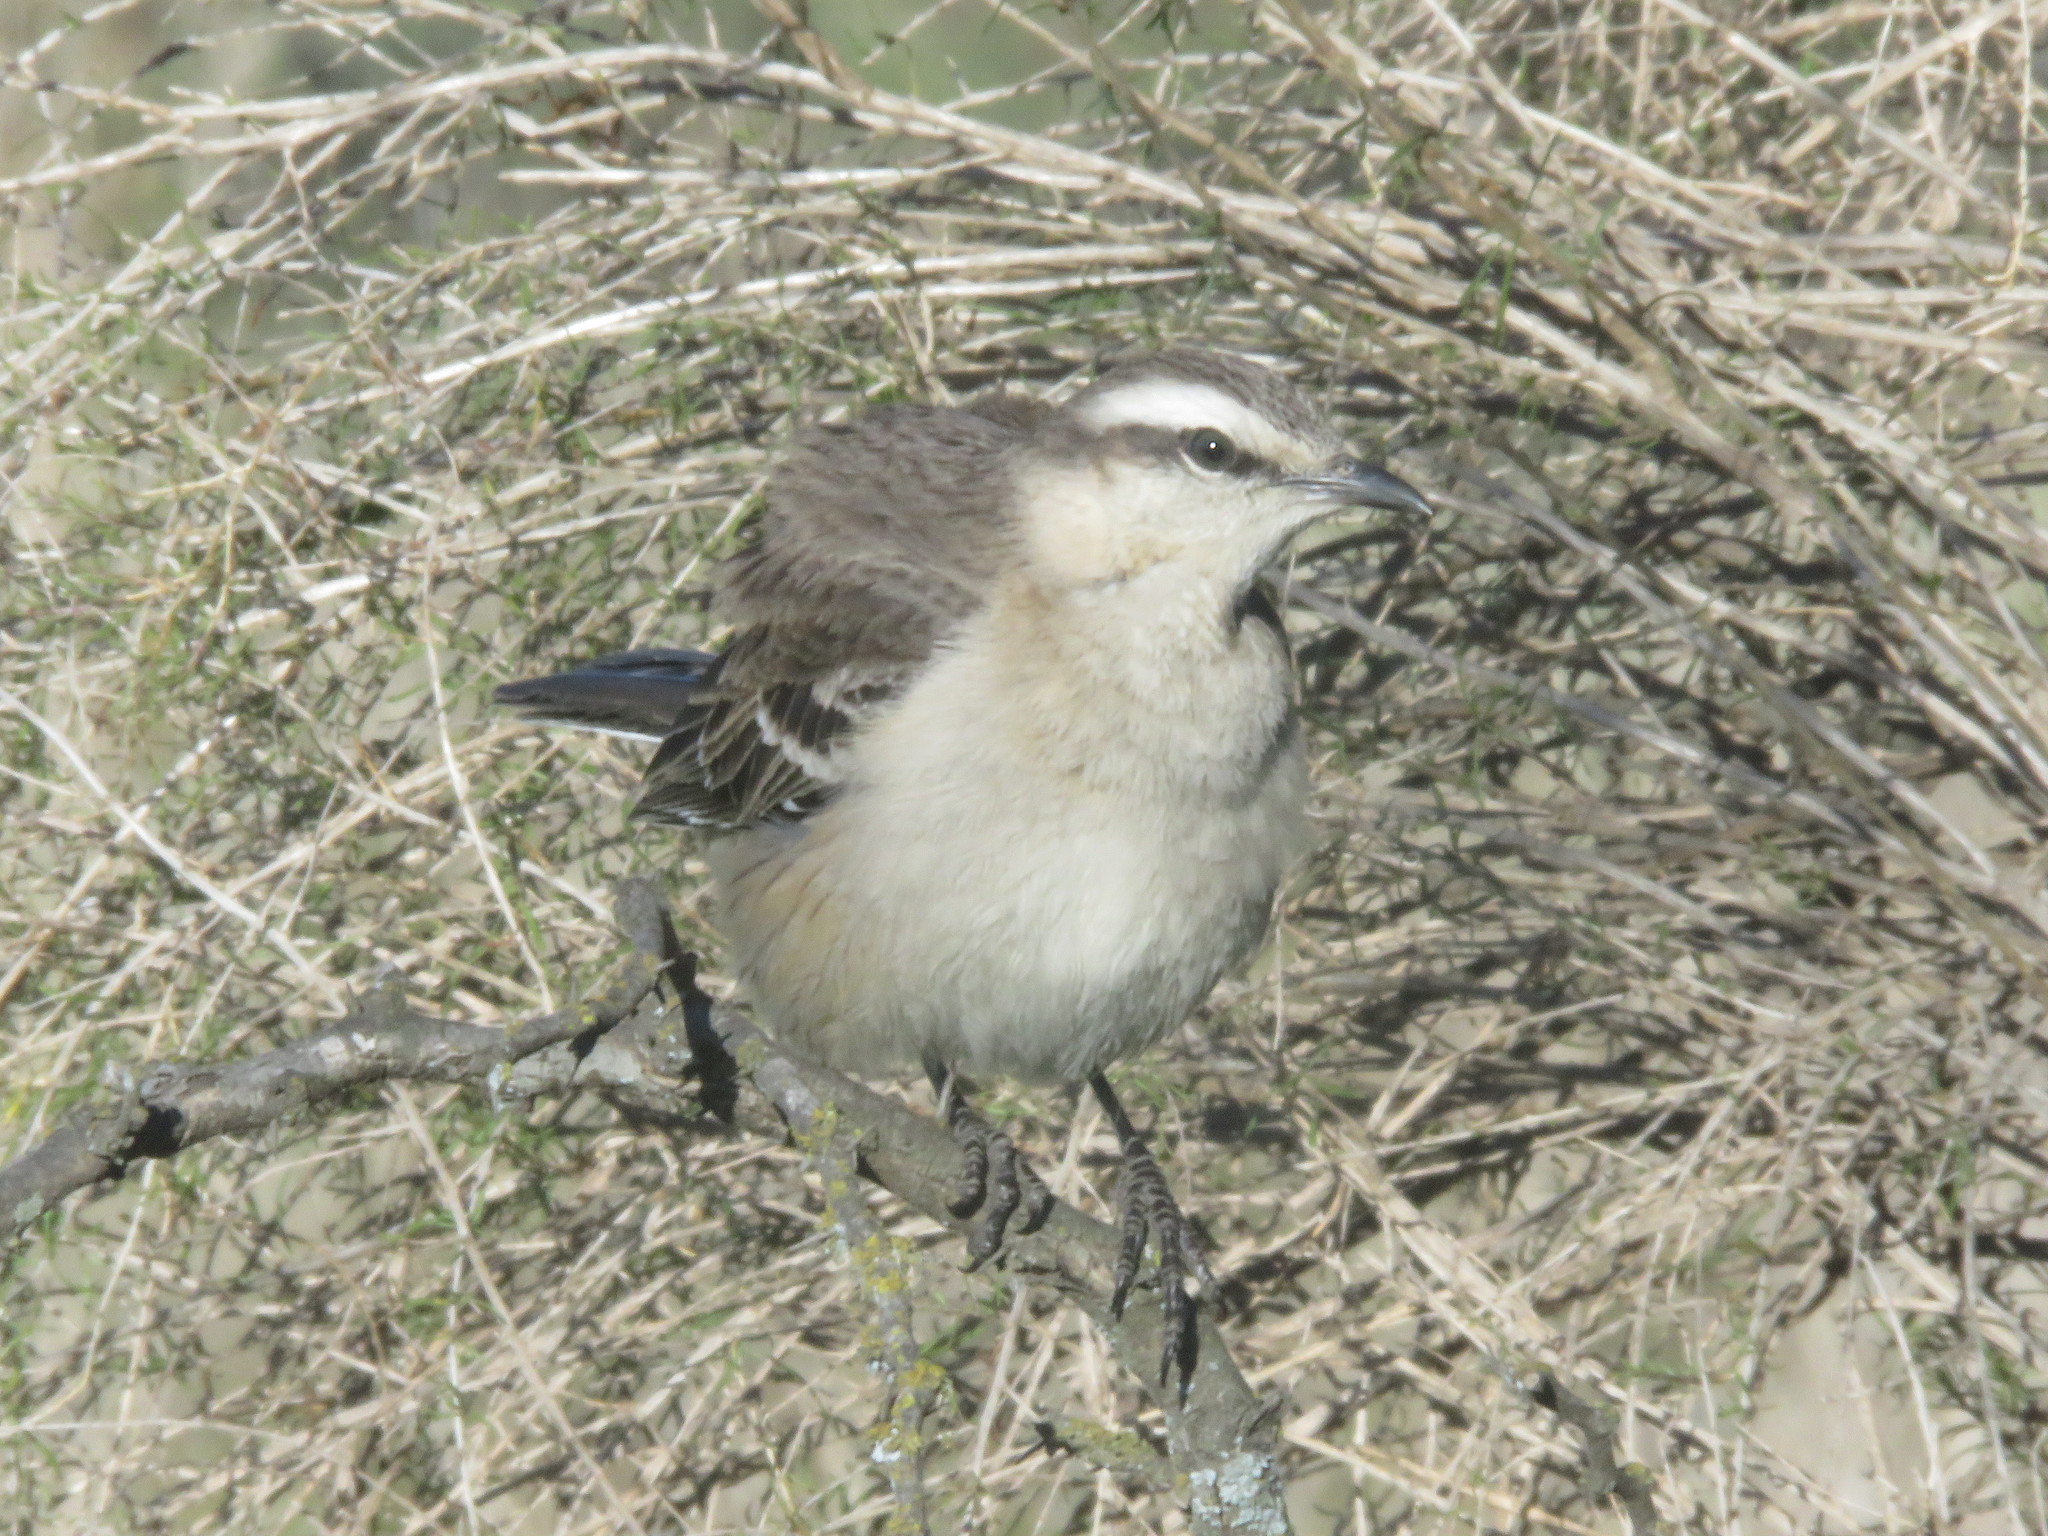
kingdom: Animalia
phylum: Chordata
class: Aves
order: Passeriformes
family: Mimidae
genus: Mimus
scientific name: Mimus saturninus
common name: Chalk-browed mockingbird
